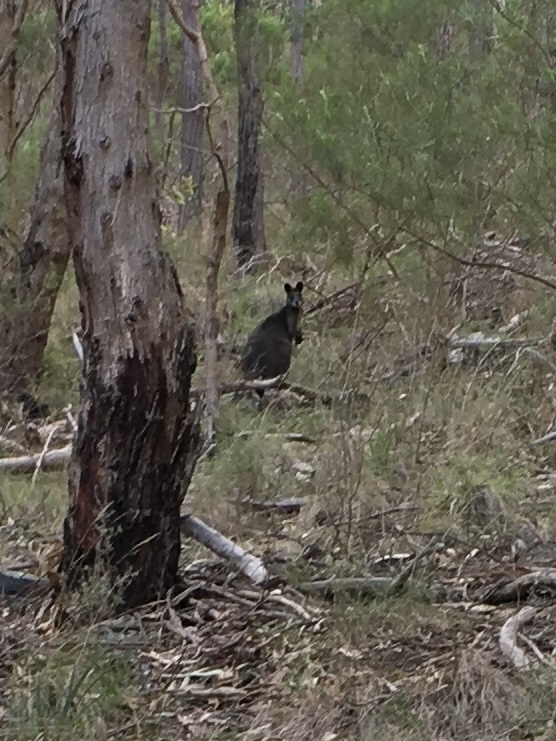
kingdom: Animalia
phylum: Chordata
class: Mammalia
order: Diprotodontia
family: Macropodidae
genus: Wallabia
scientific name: Wallabia bicolor
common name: Swamp wallaby
